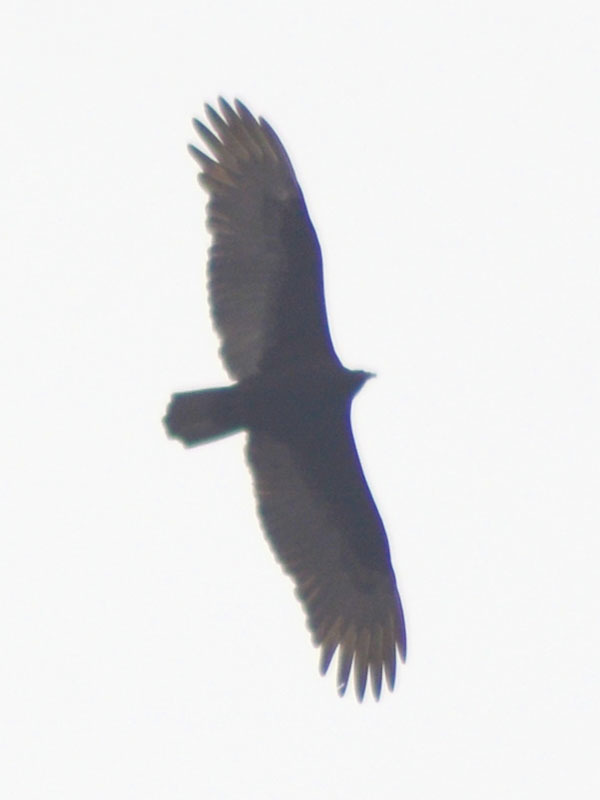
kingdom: Animalia
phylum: Chordata
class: Aves
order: Accipitriformes
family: Cathartidae
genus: Cathartes
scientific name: Cathartes aura
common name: Turkey vulture
